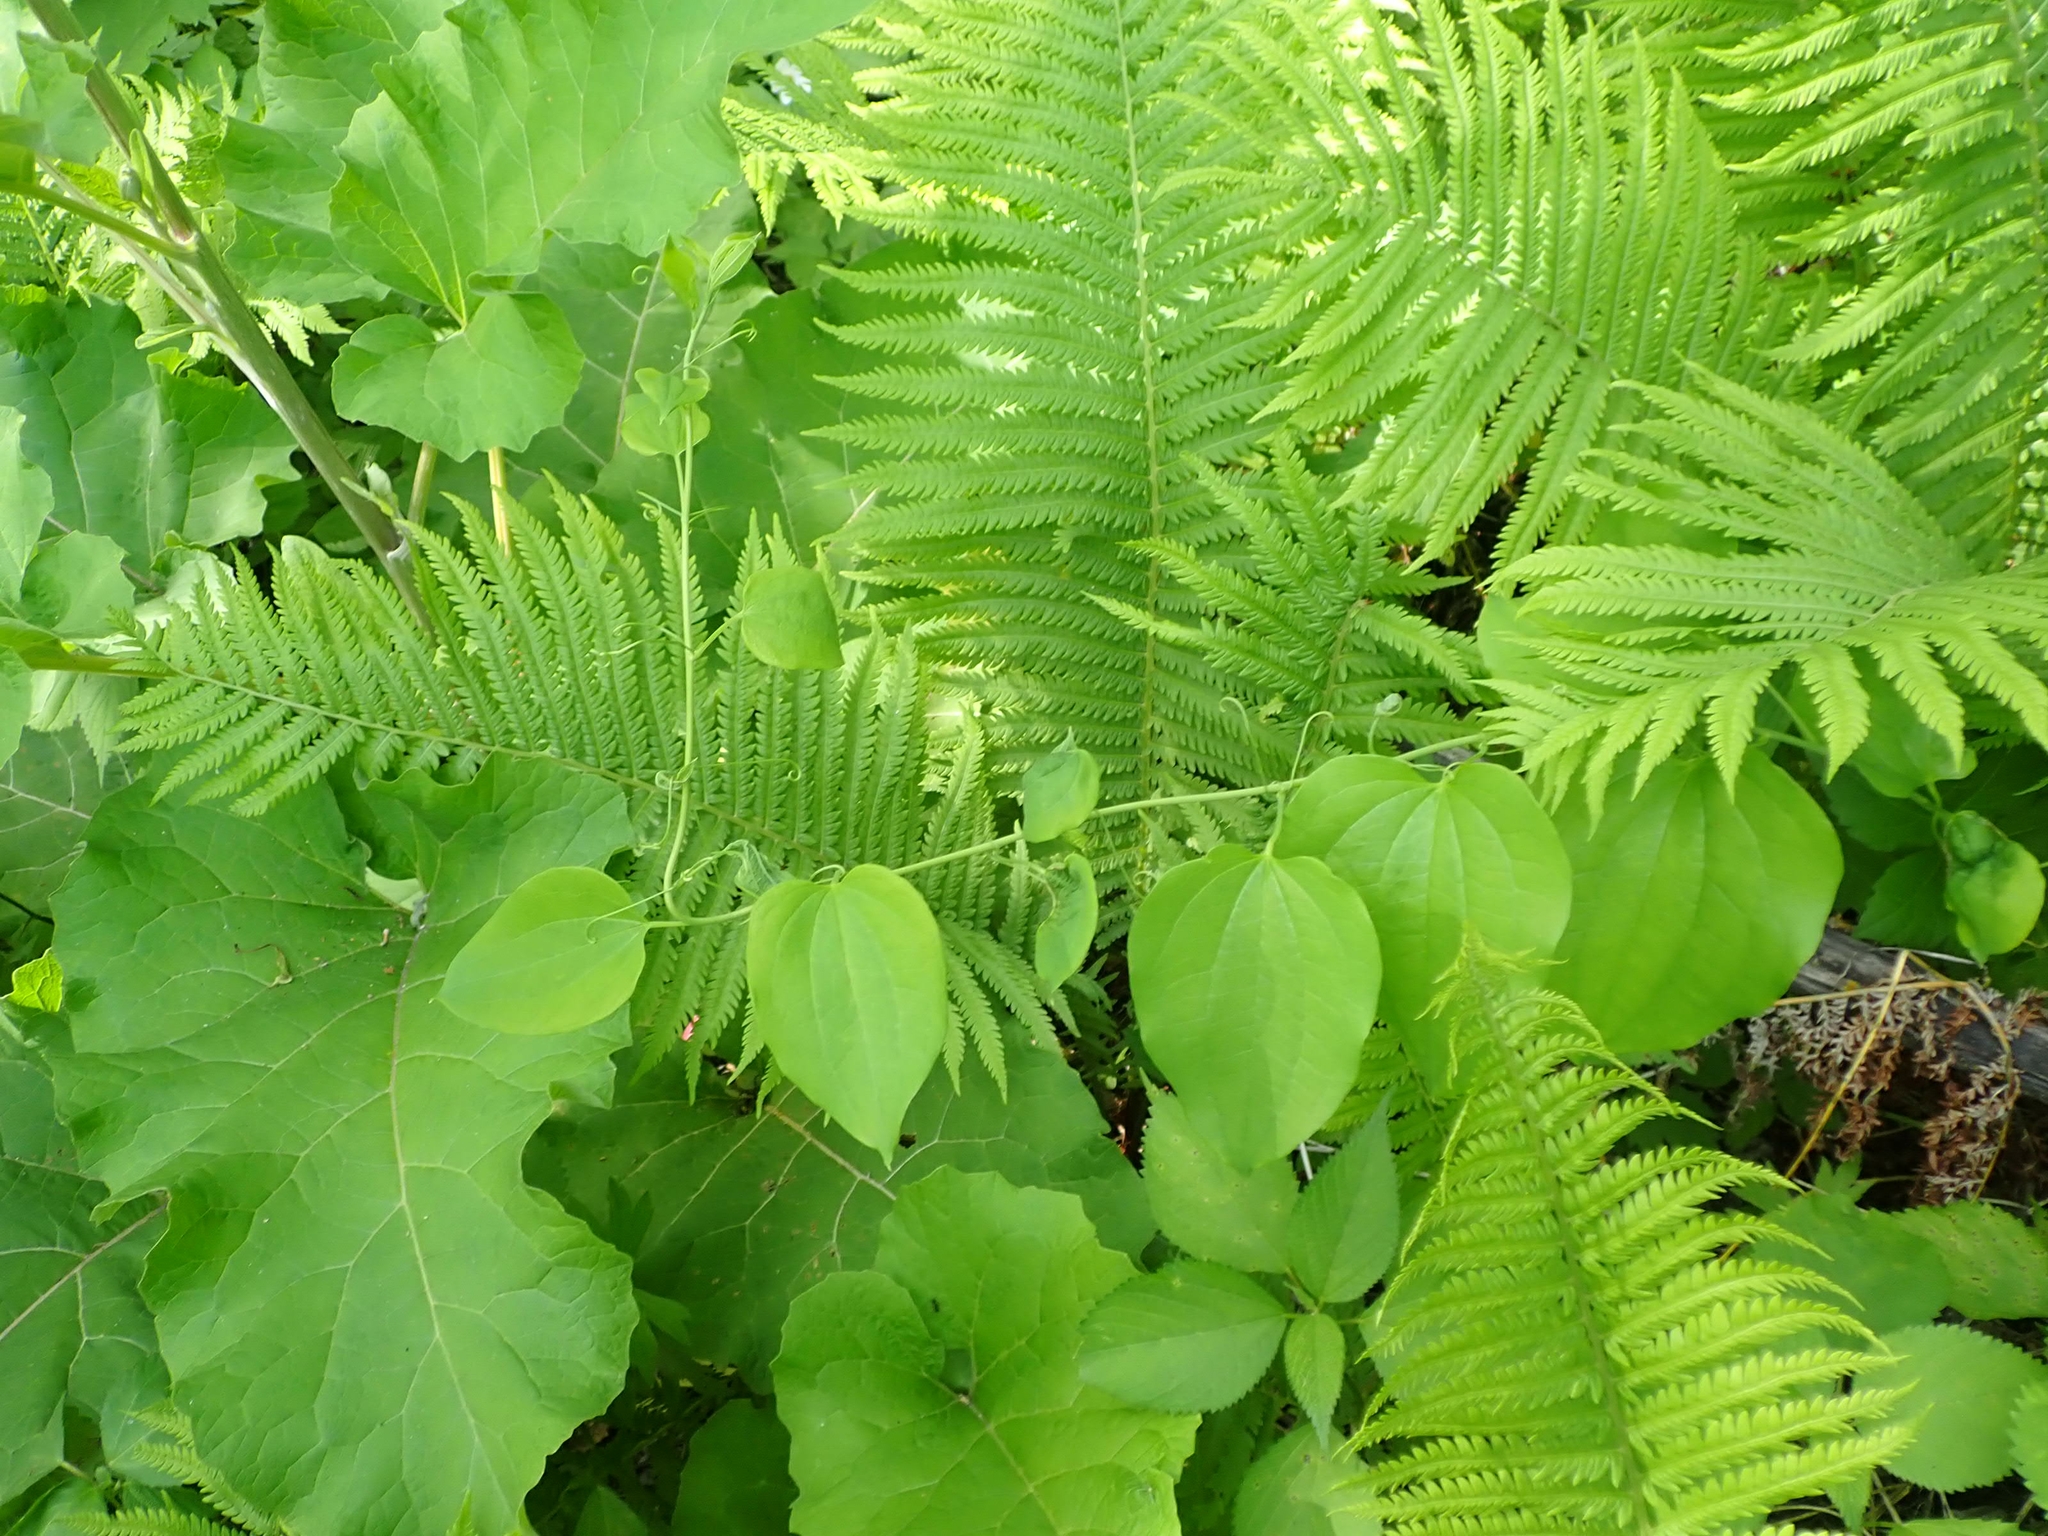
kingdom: Plantae
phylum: Tracheophyta
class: Liliopsida
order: Liliales
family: Smilacaceae
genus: Smilax
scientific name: Smilax lasioneura
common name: Blue ridge carrionflower
